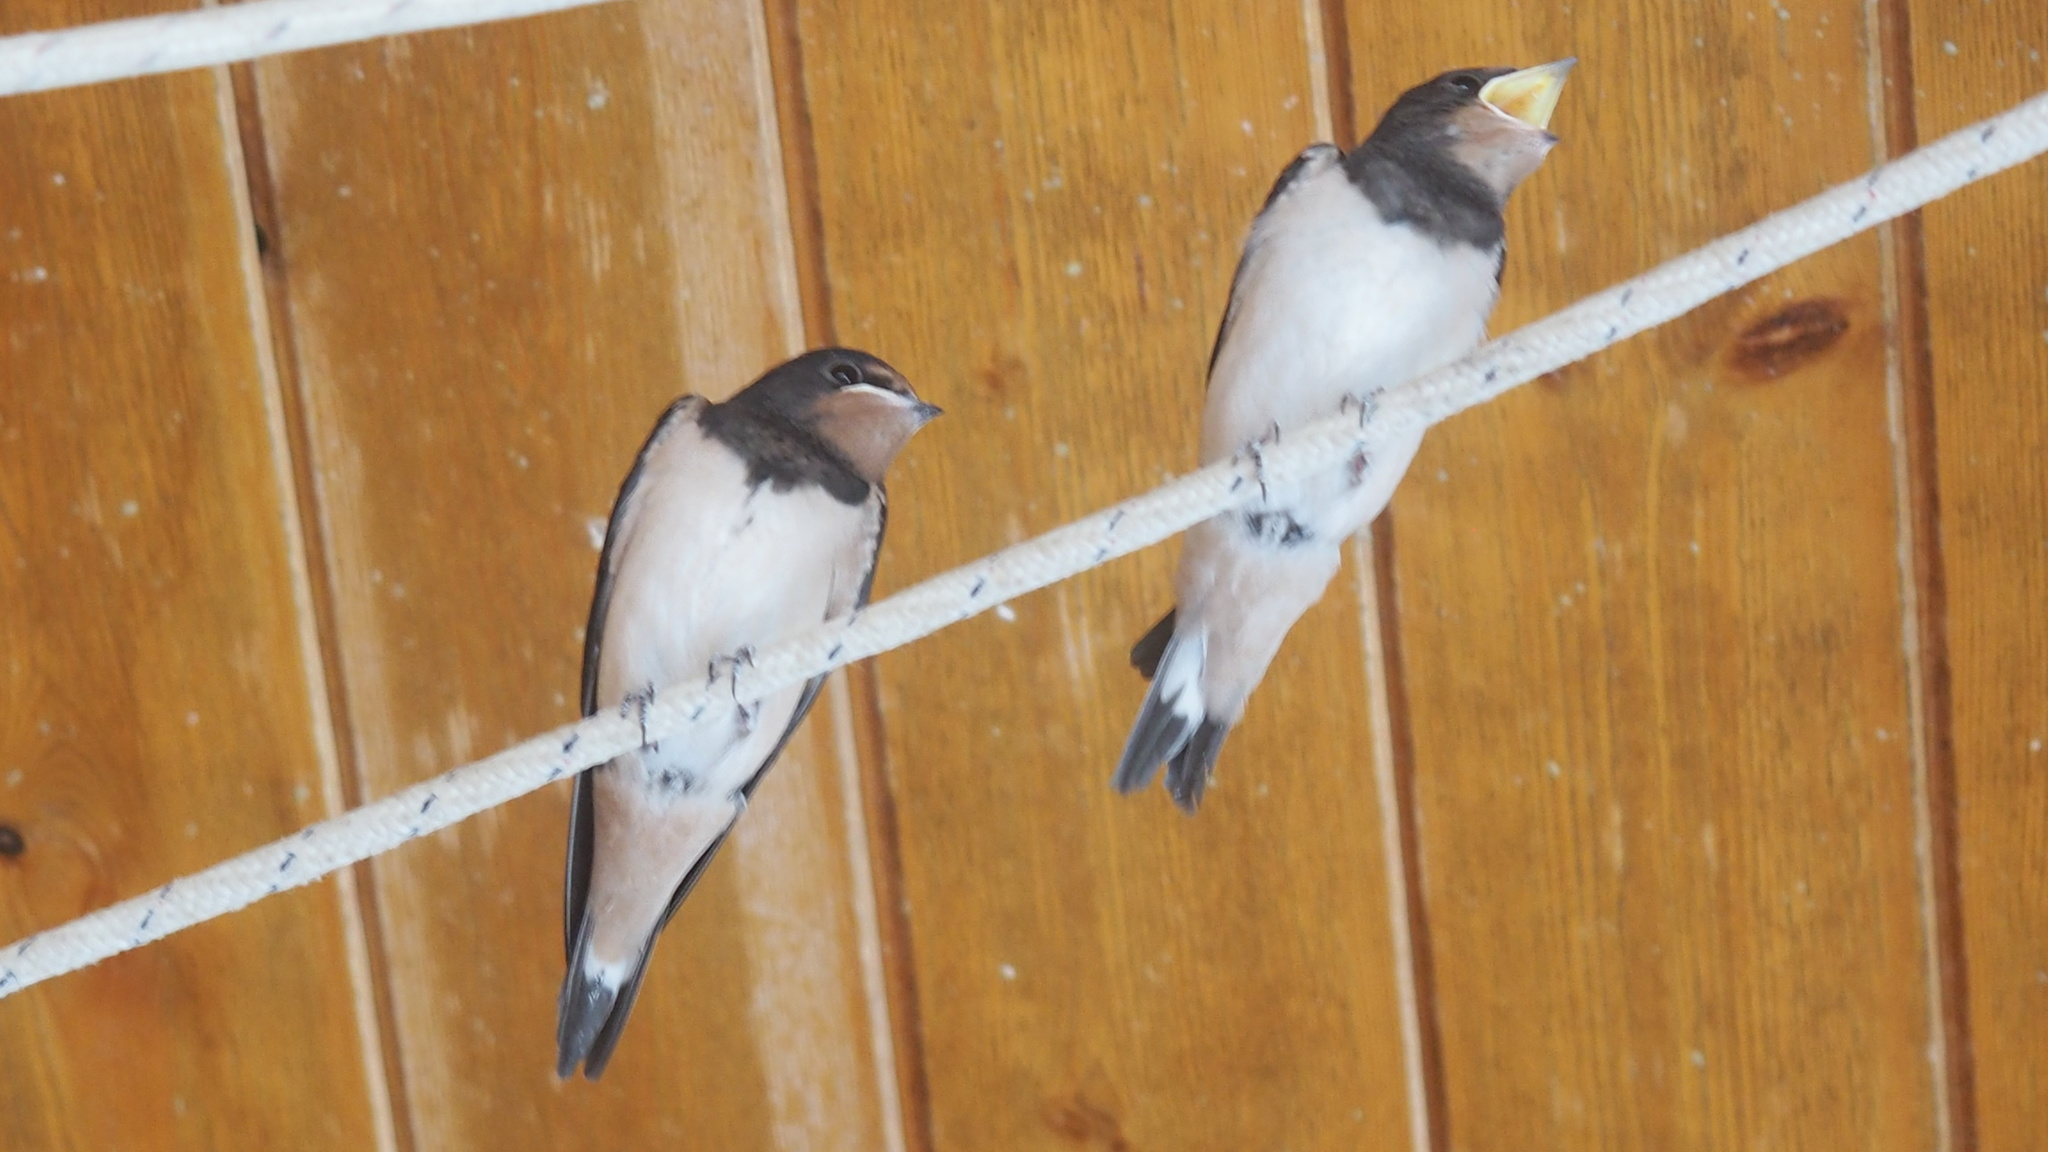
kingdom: Animalia
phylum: Chordata
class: Aves
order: Passeriformes
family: Hirundinidae
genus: Hirundo
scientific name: Hirundo rustica
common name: Barn swallow
